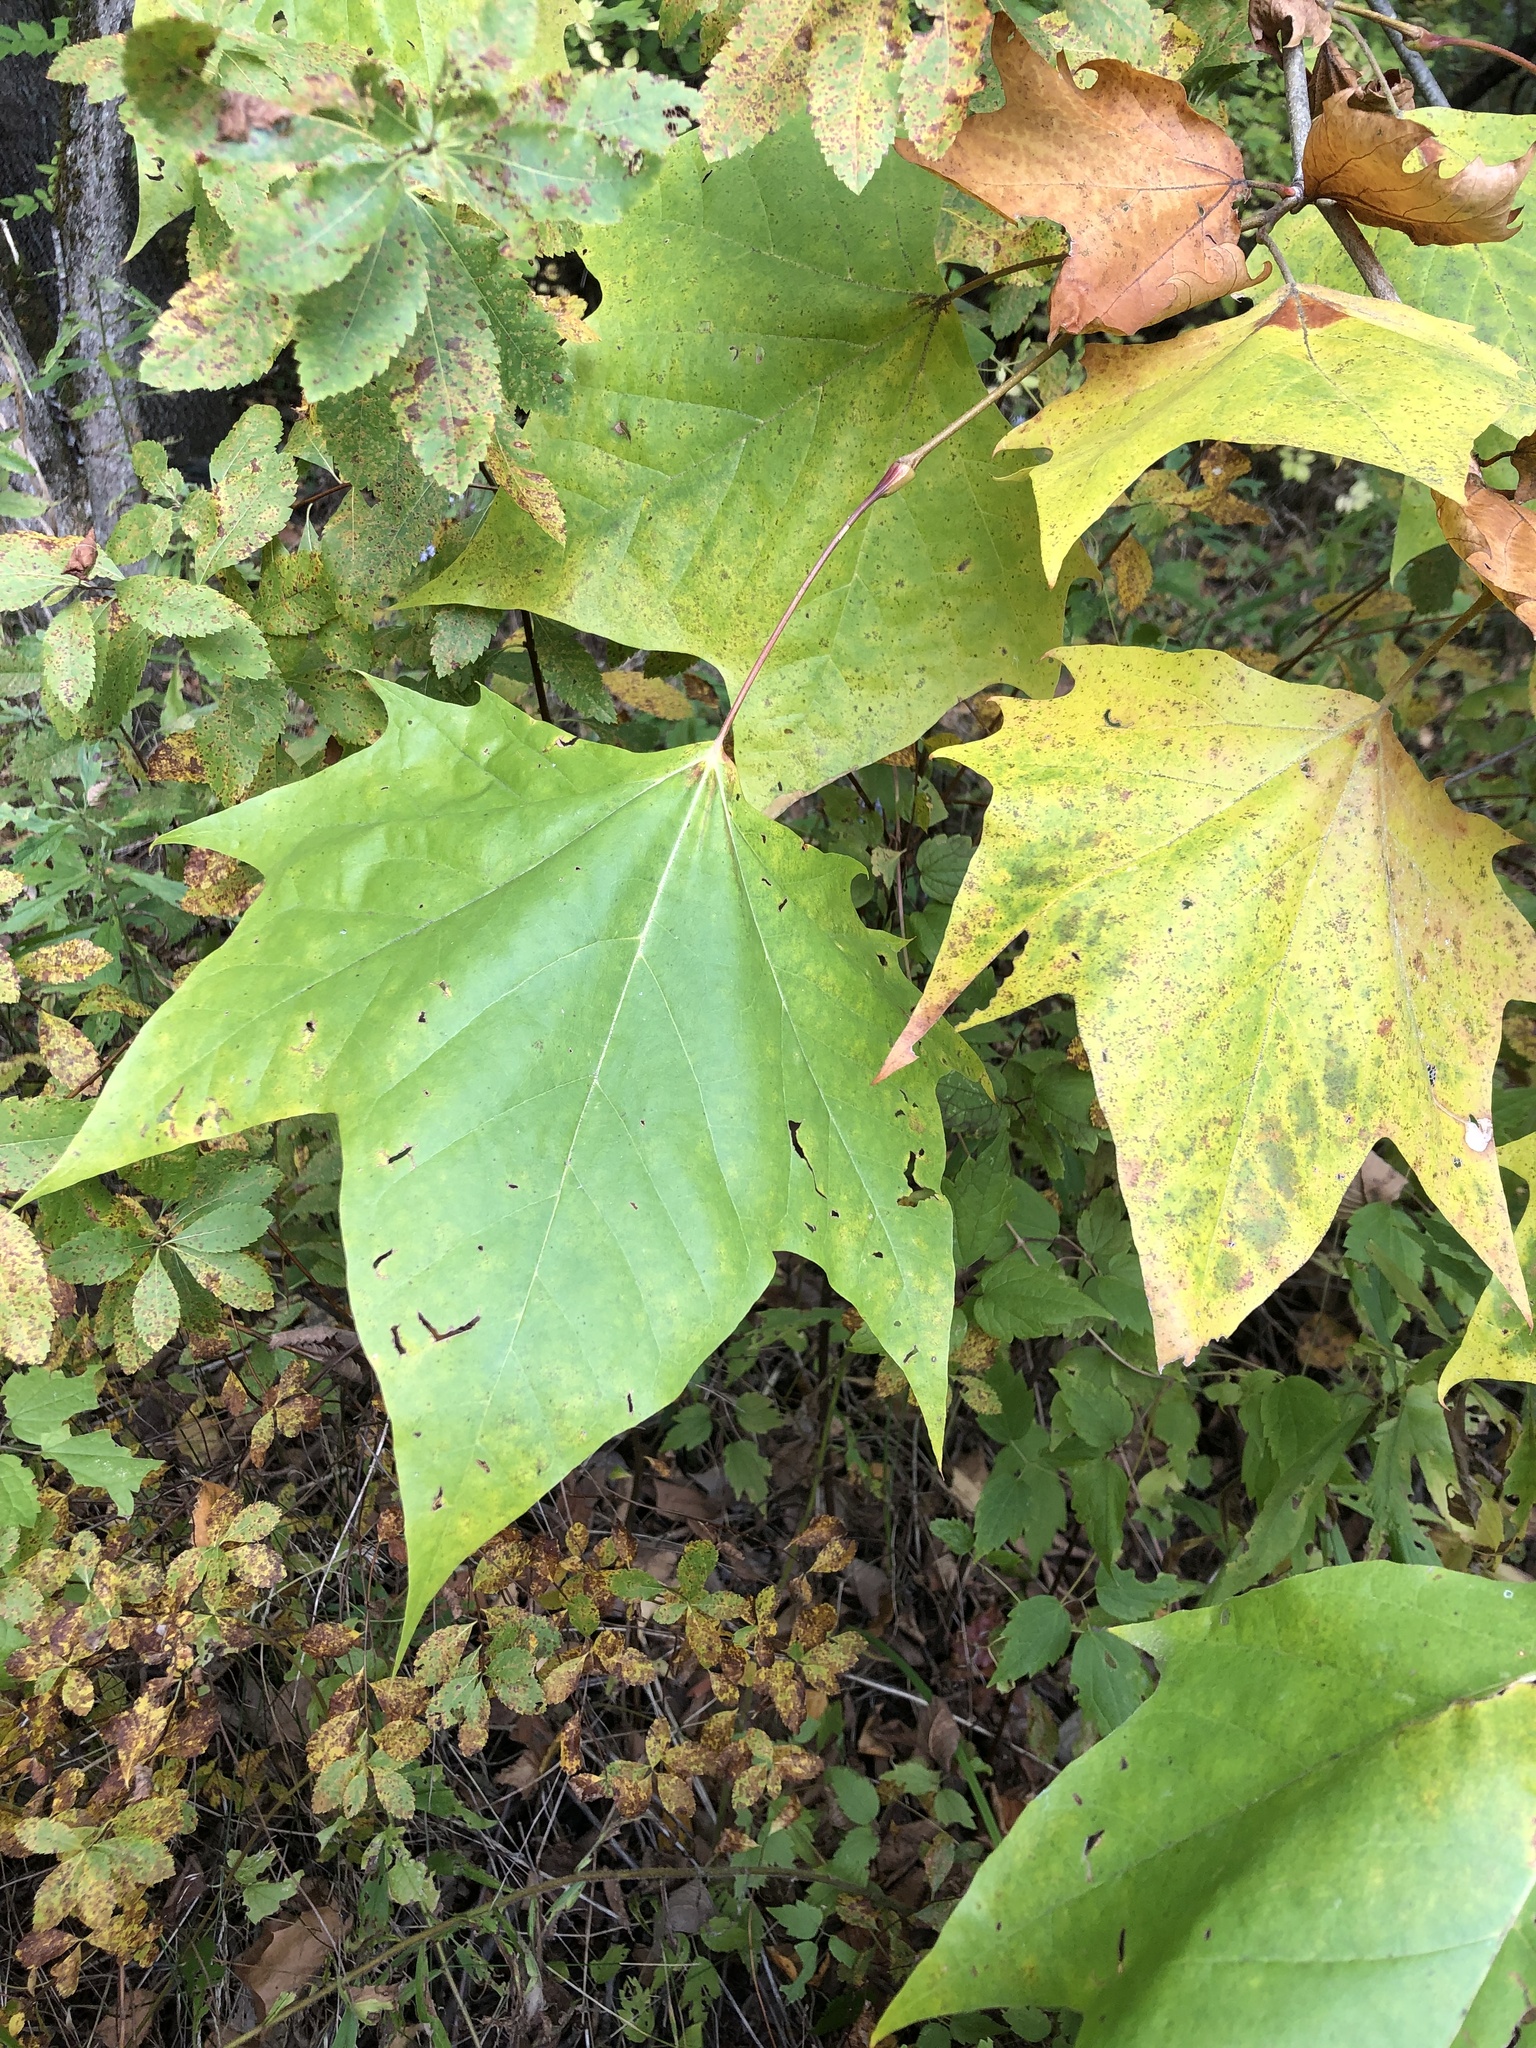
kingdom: Plantae
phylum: Tracheophyta
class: Magnoliopsida
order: Sapindales
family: Sapindaceae
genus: Acer
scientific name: Acer pensylvanicum
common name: Moosewood
